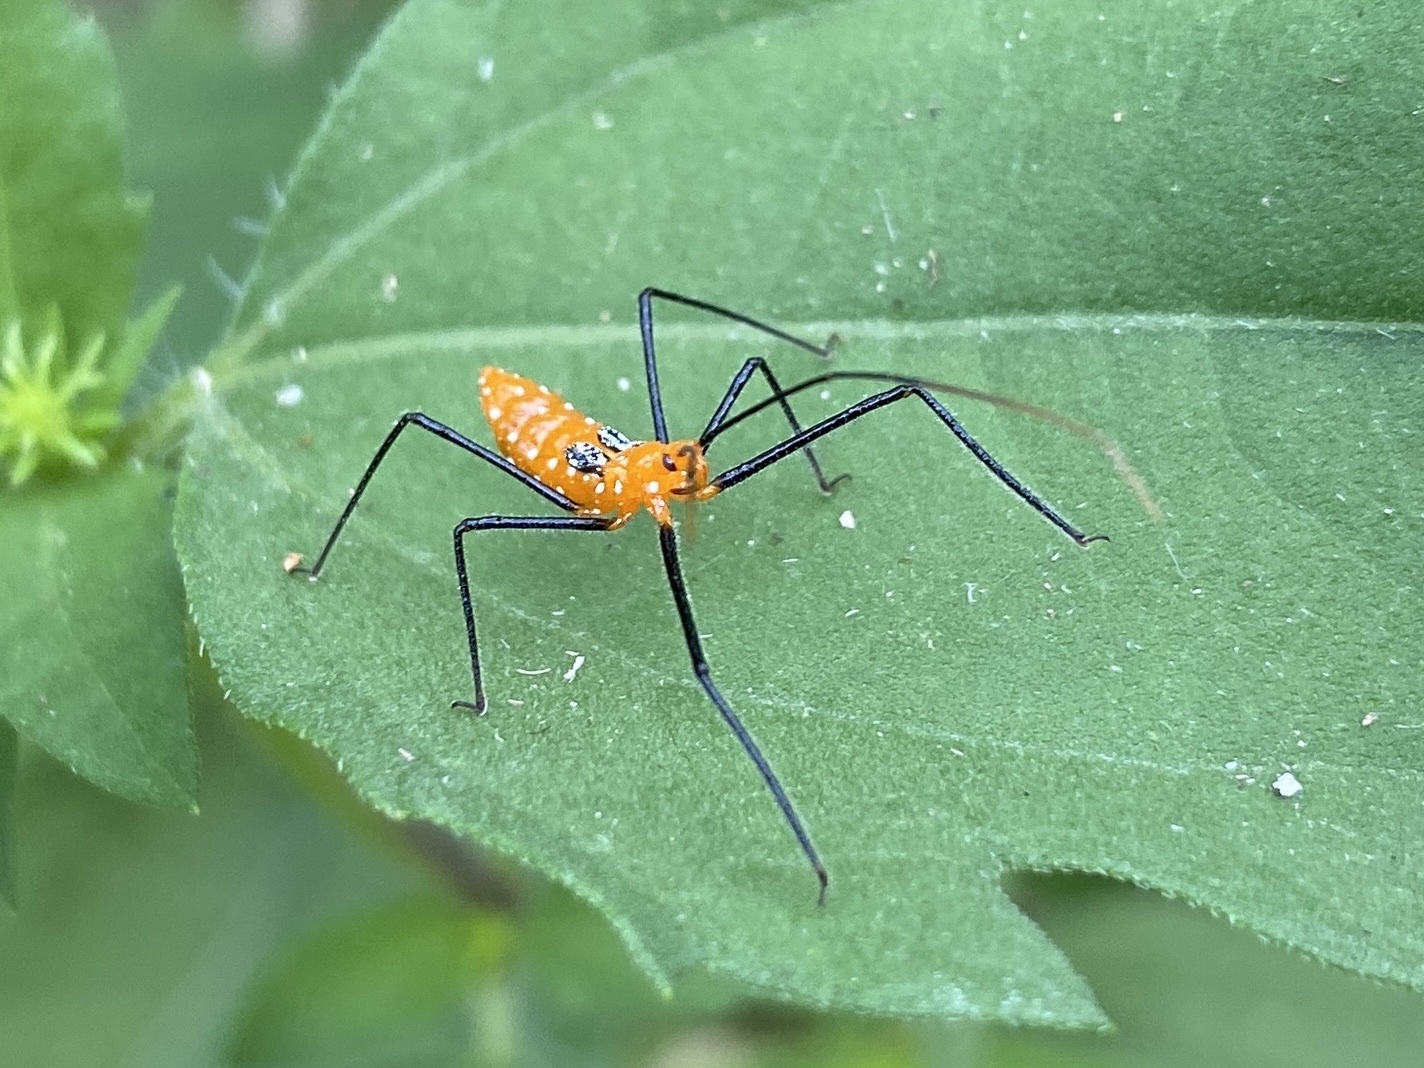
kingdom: Animalia
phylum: Arthropoda
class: Insecta
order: Hemiptera
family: Reduviidae
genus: Zelus
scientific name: Zelus longipes
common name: Milkweed assassin bug
